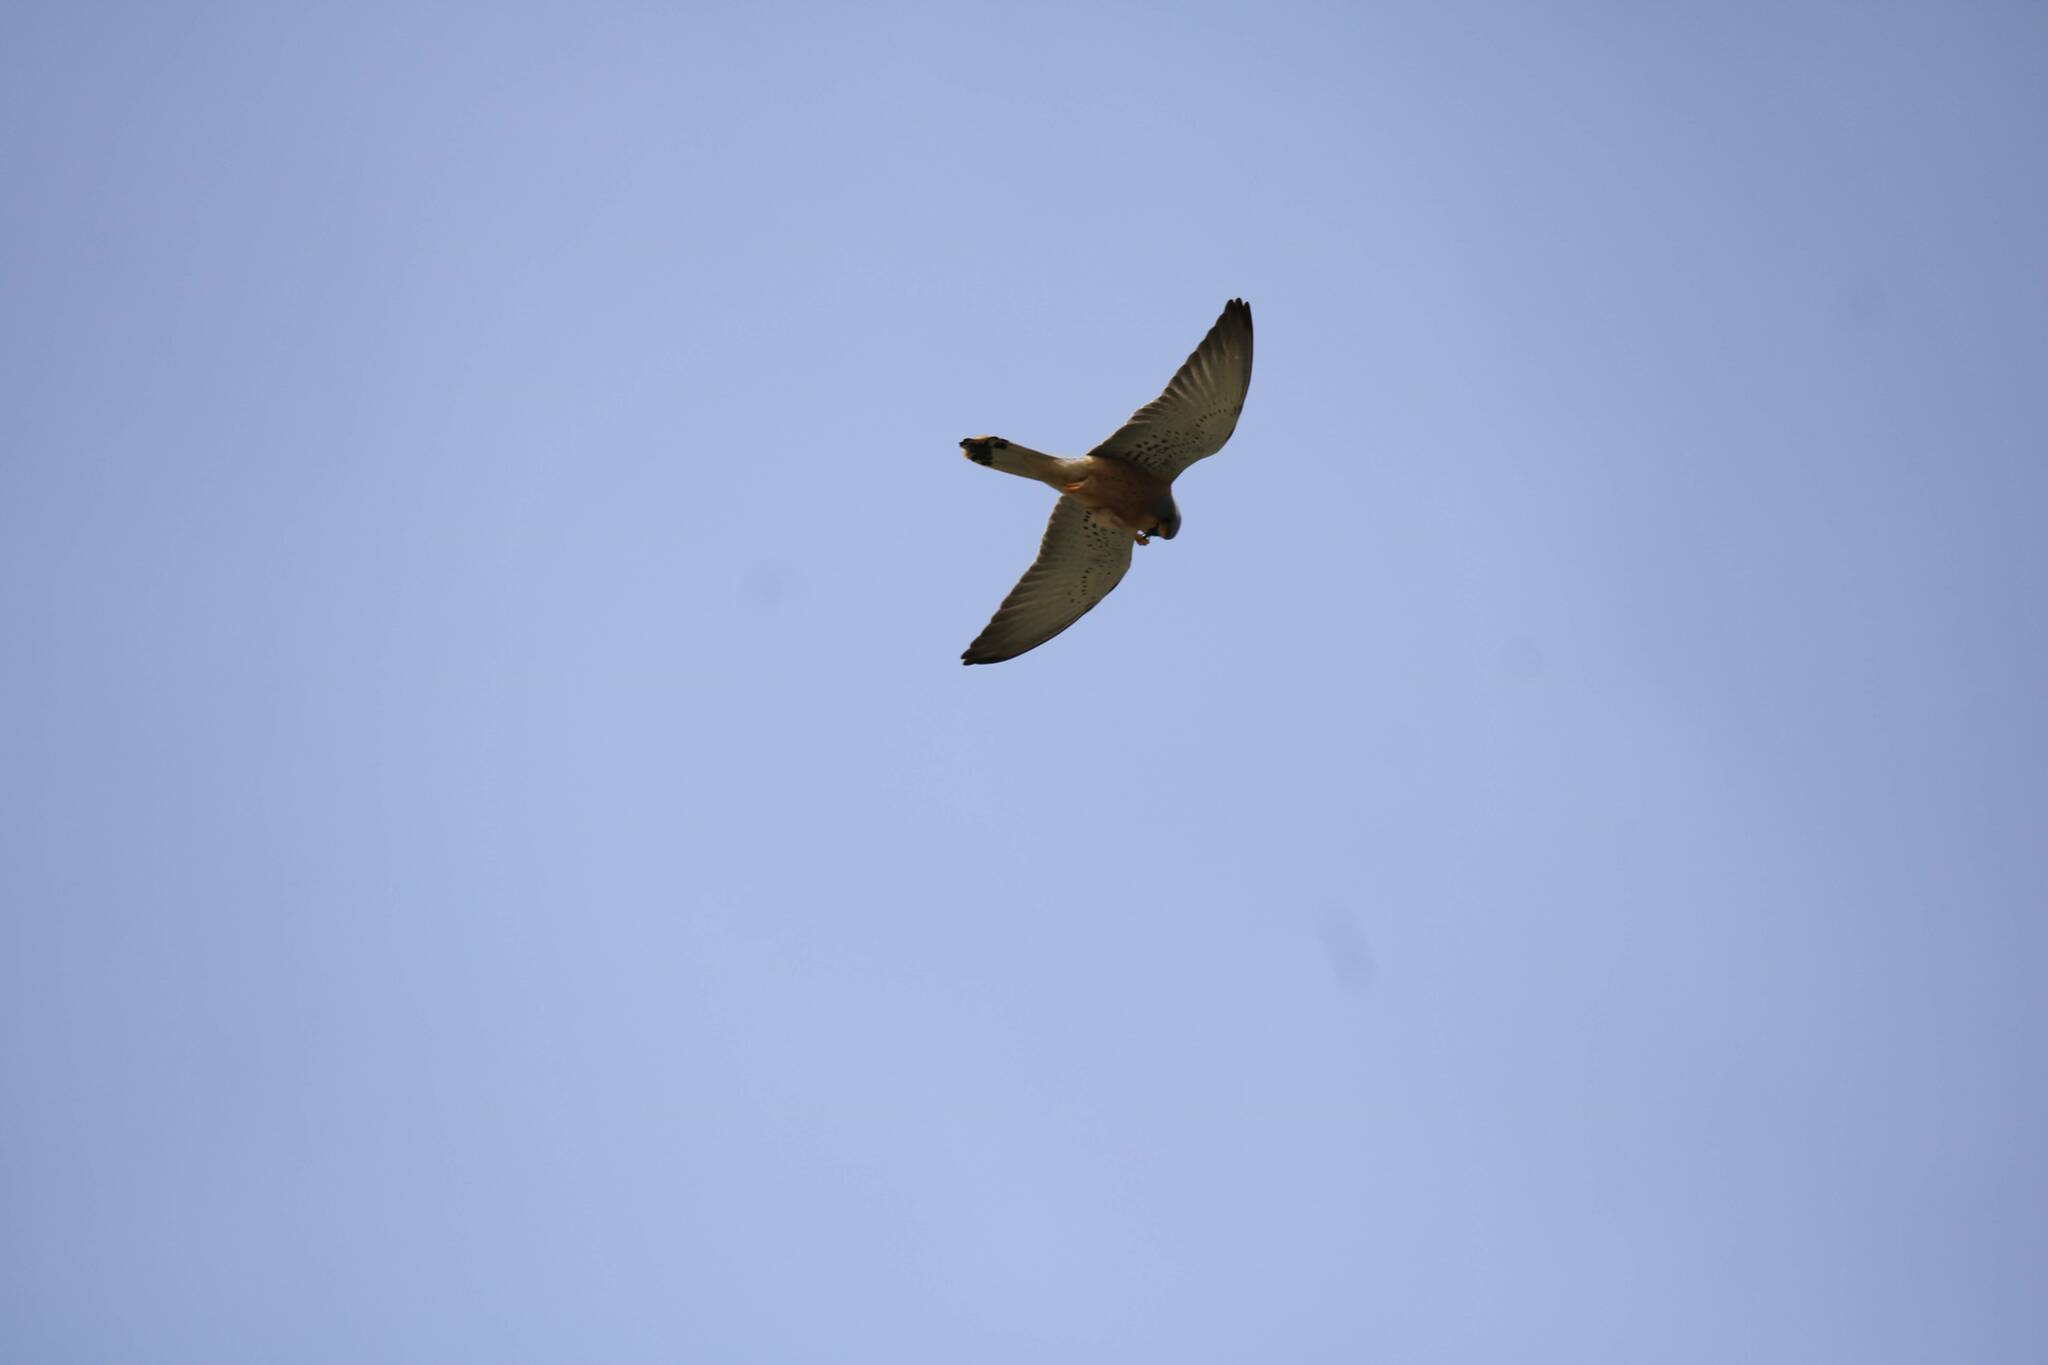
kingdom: Animalia
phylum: Chordata
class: Aves
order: Falconiformes
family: Falconidae
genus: Falco
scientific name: Falco naumanni
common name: Lesser kestrel
